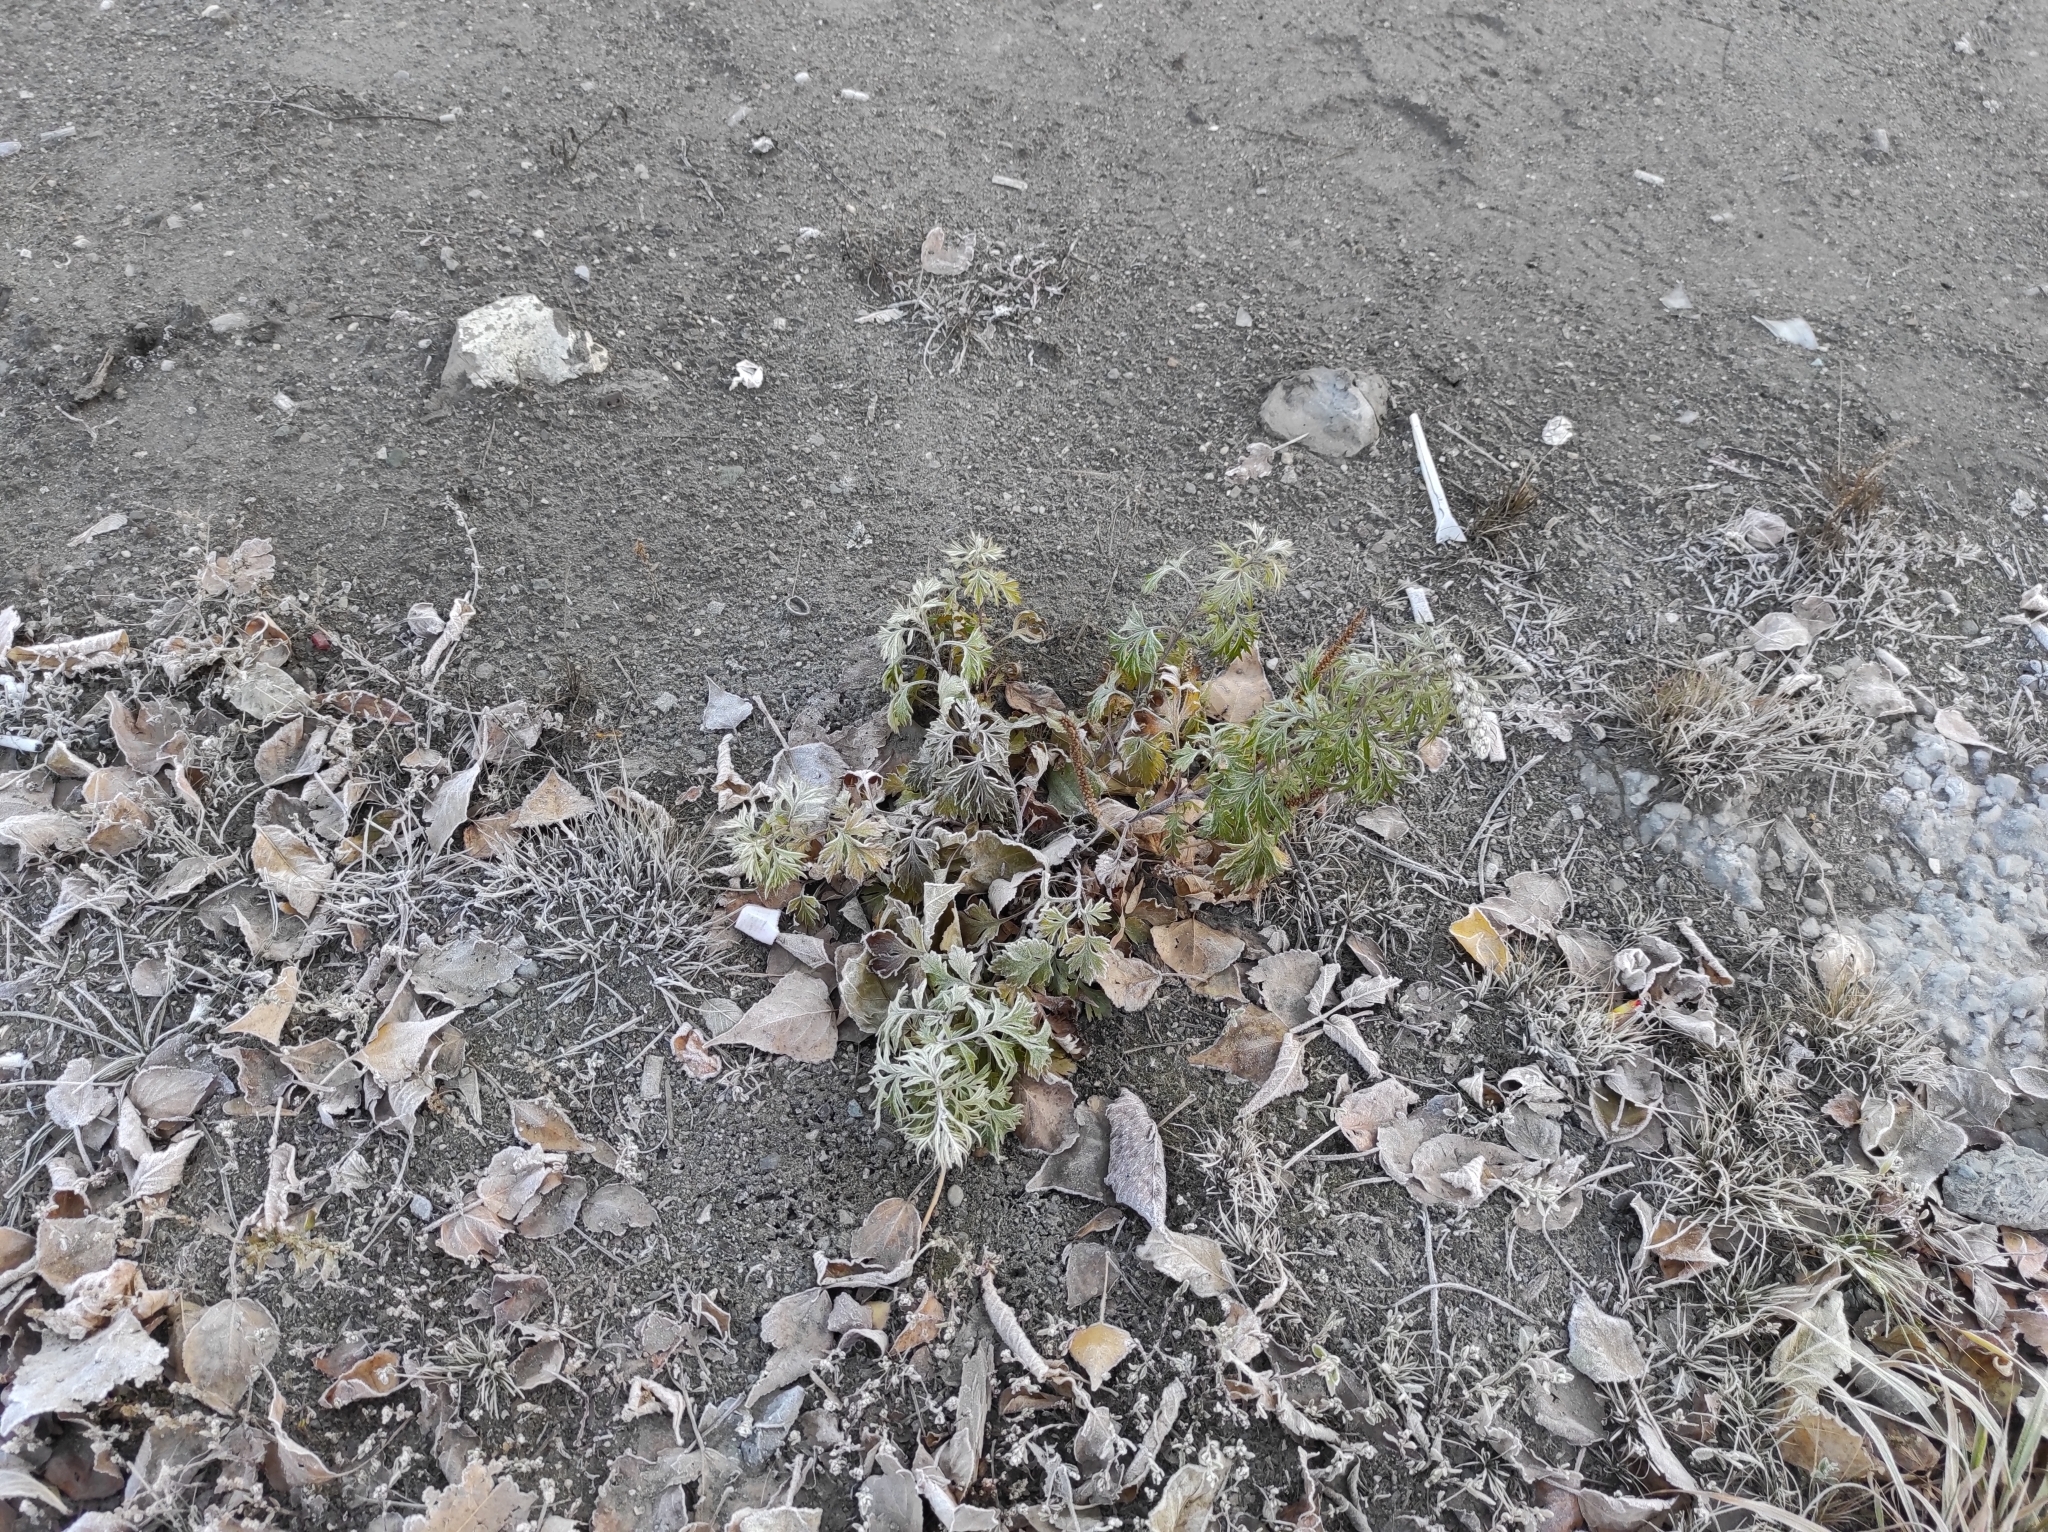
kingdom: Plantae
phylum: Tracheophyta
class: Magnoliopsida
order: Asterales
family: Asteraceae
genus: Artemisia
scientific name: Artemisia vulgaris
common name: Mugwort
